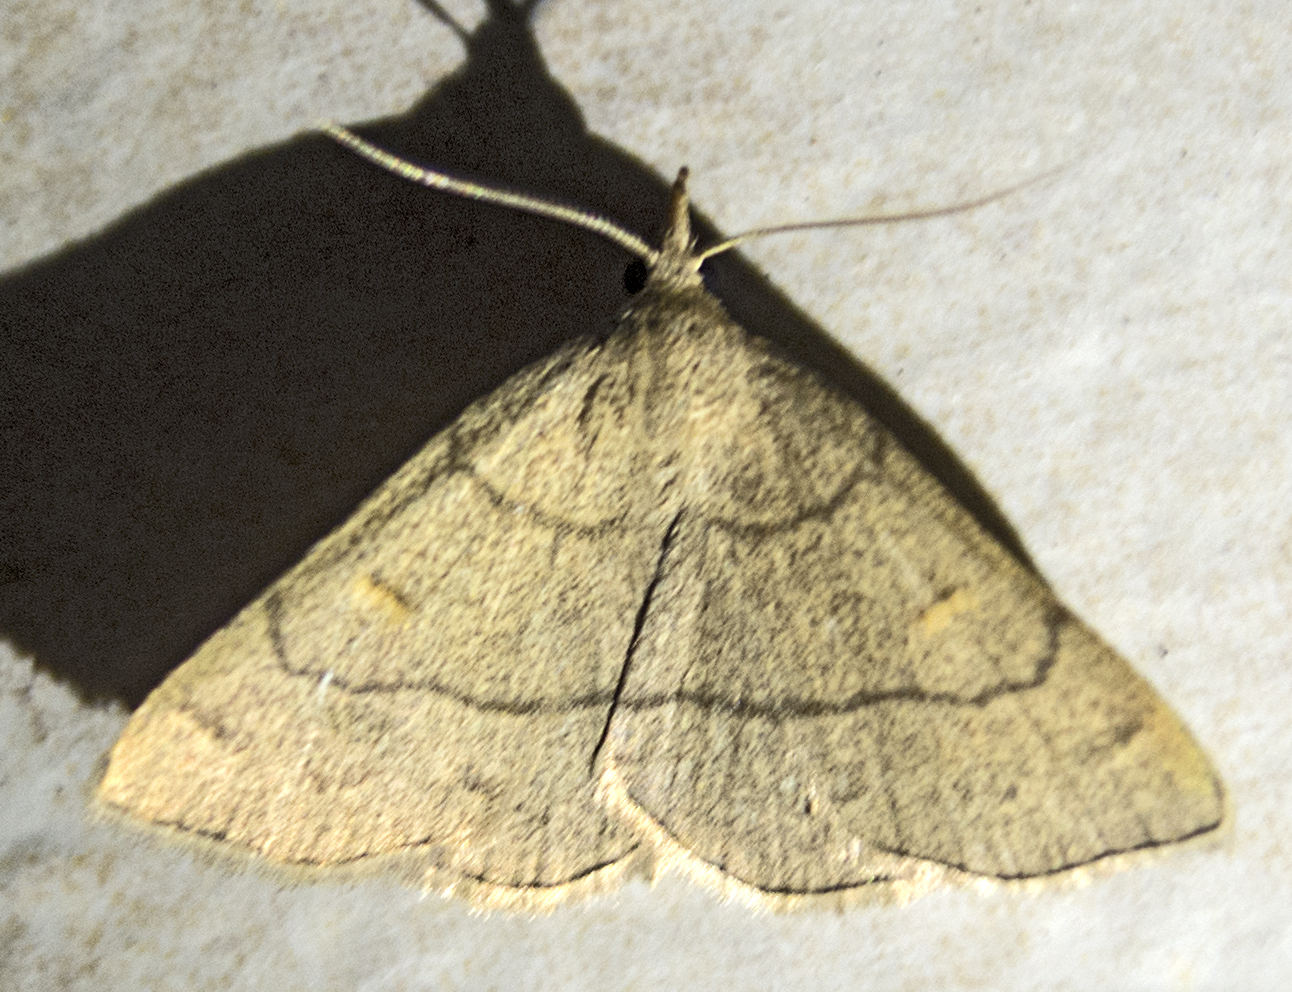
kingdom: Animalia
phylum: Arthropoda
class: Insecta
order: Lepidoptera
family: Erebidae
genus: Paracolax
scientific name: Paracolax tristalis
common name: Clay fan-foot
